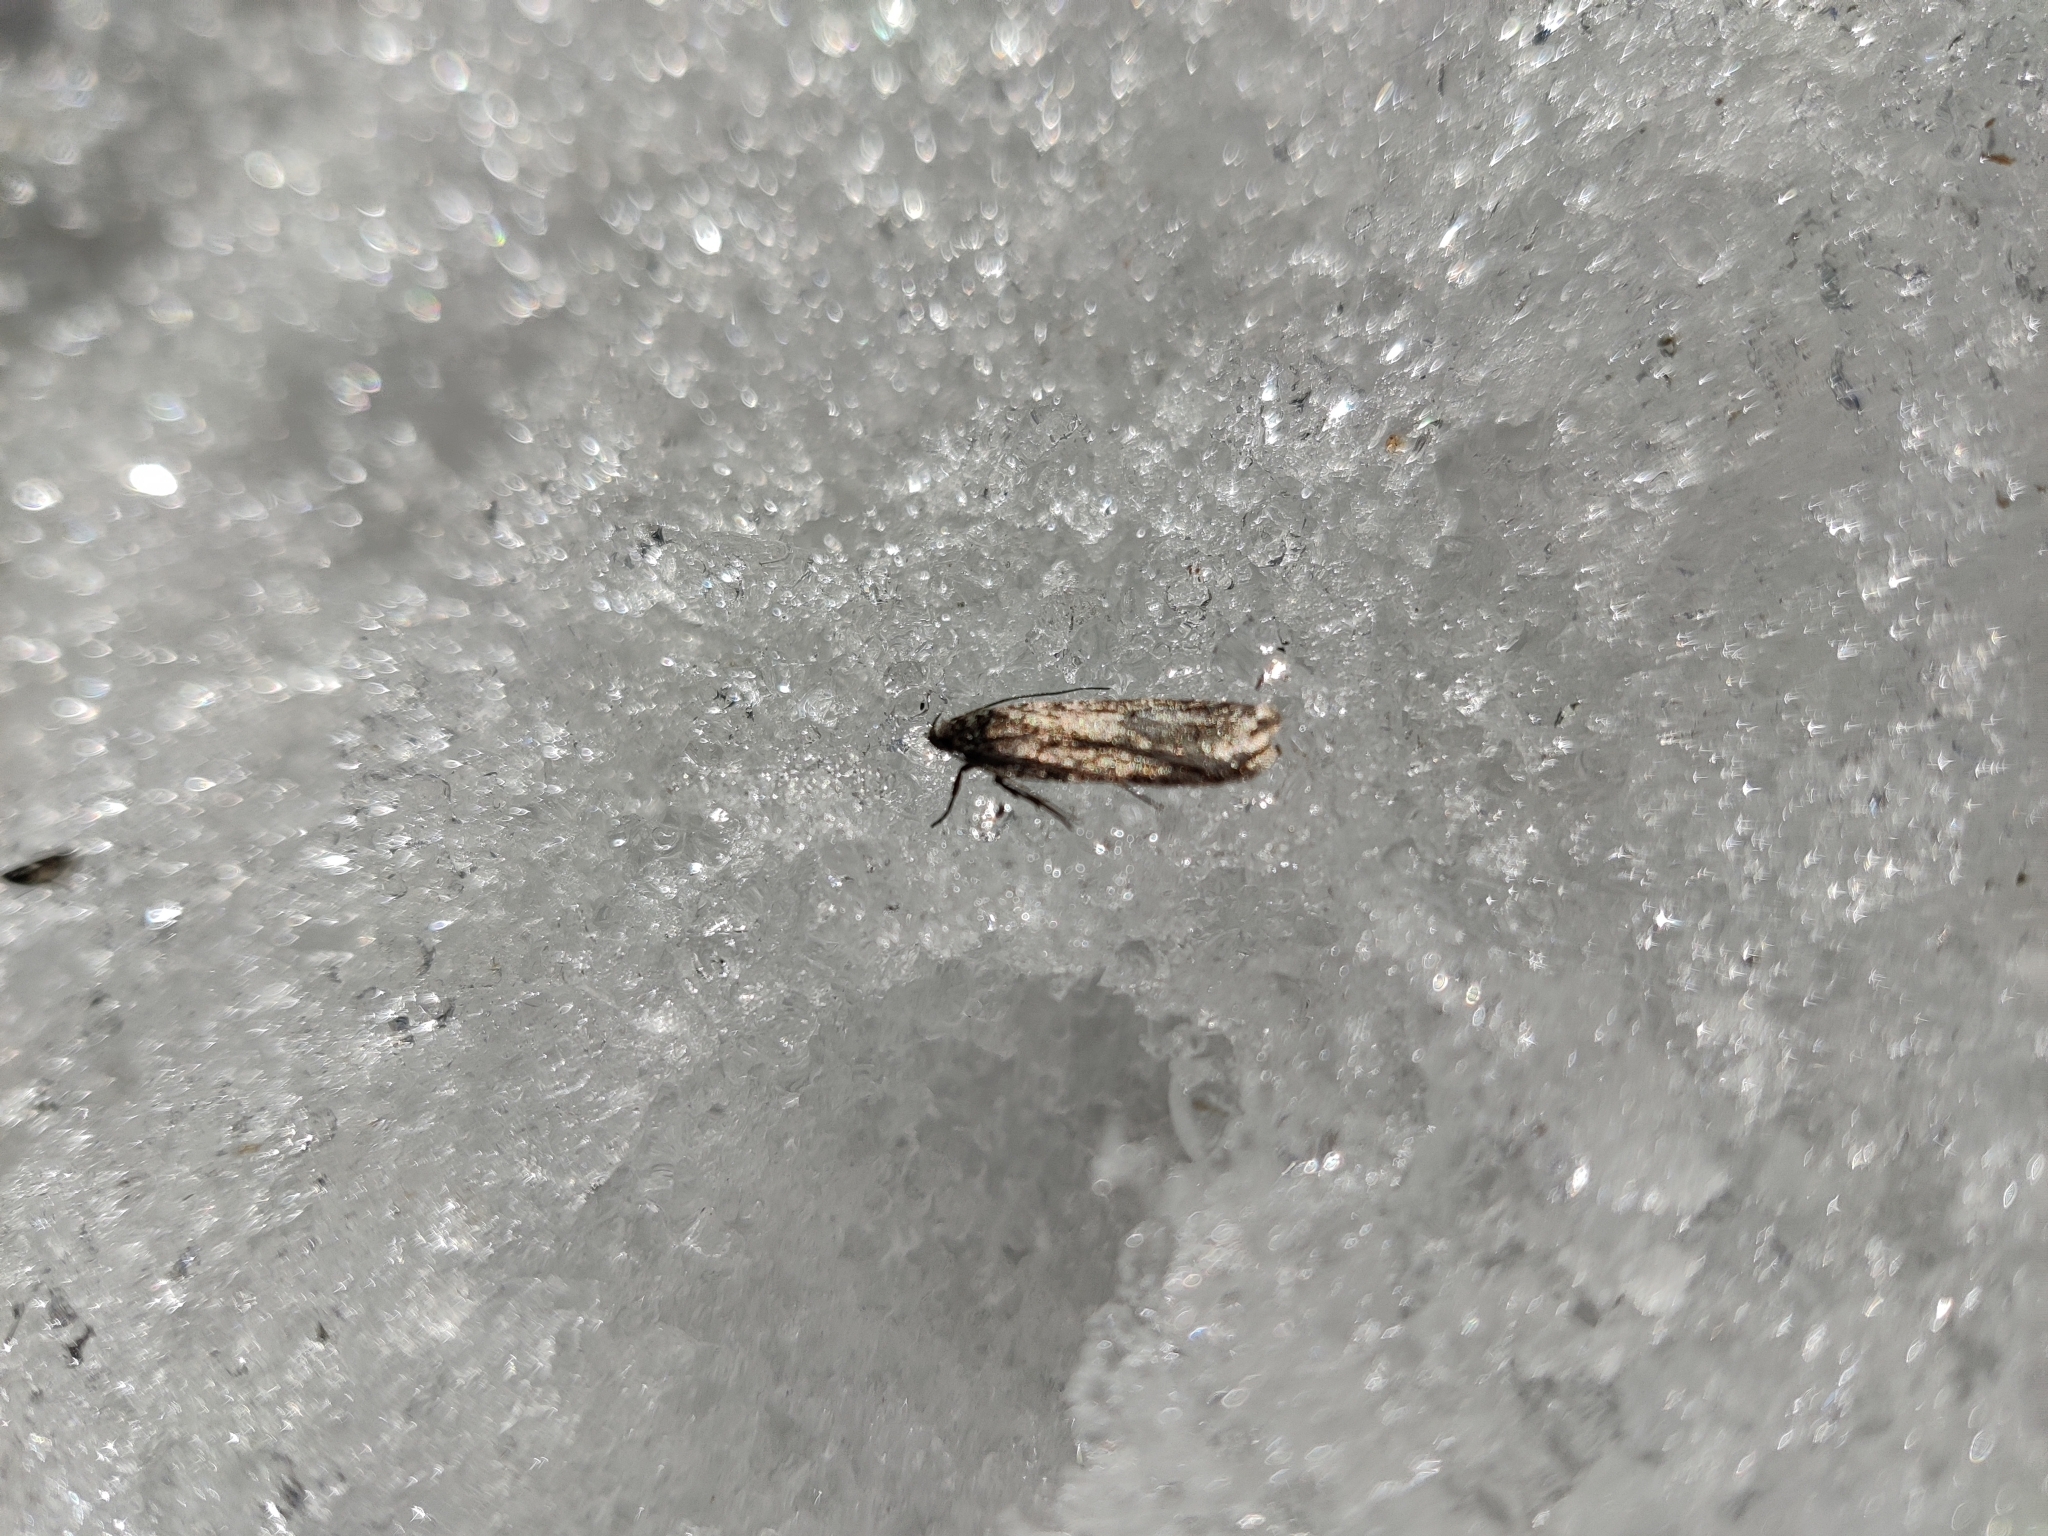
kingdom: Animalia
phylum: Arthropoda
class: Insecta
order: Lepidoptera
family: Depressariidae
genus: Exaeretia
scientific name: Exaeretia ciniflonella
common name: Scotch flat-body
